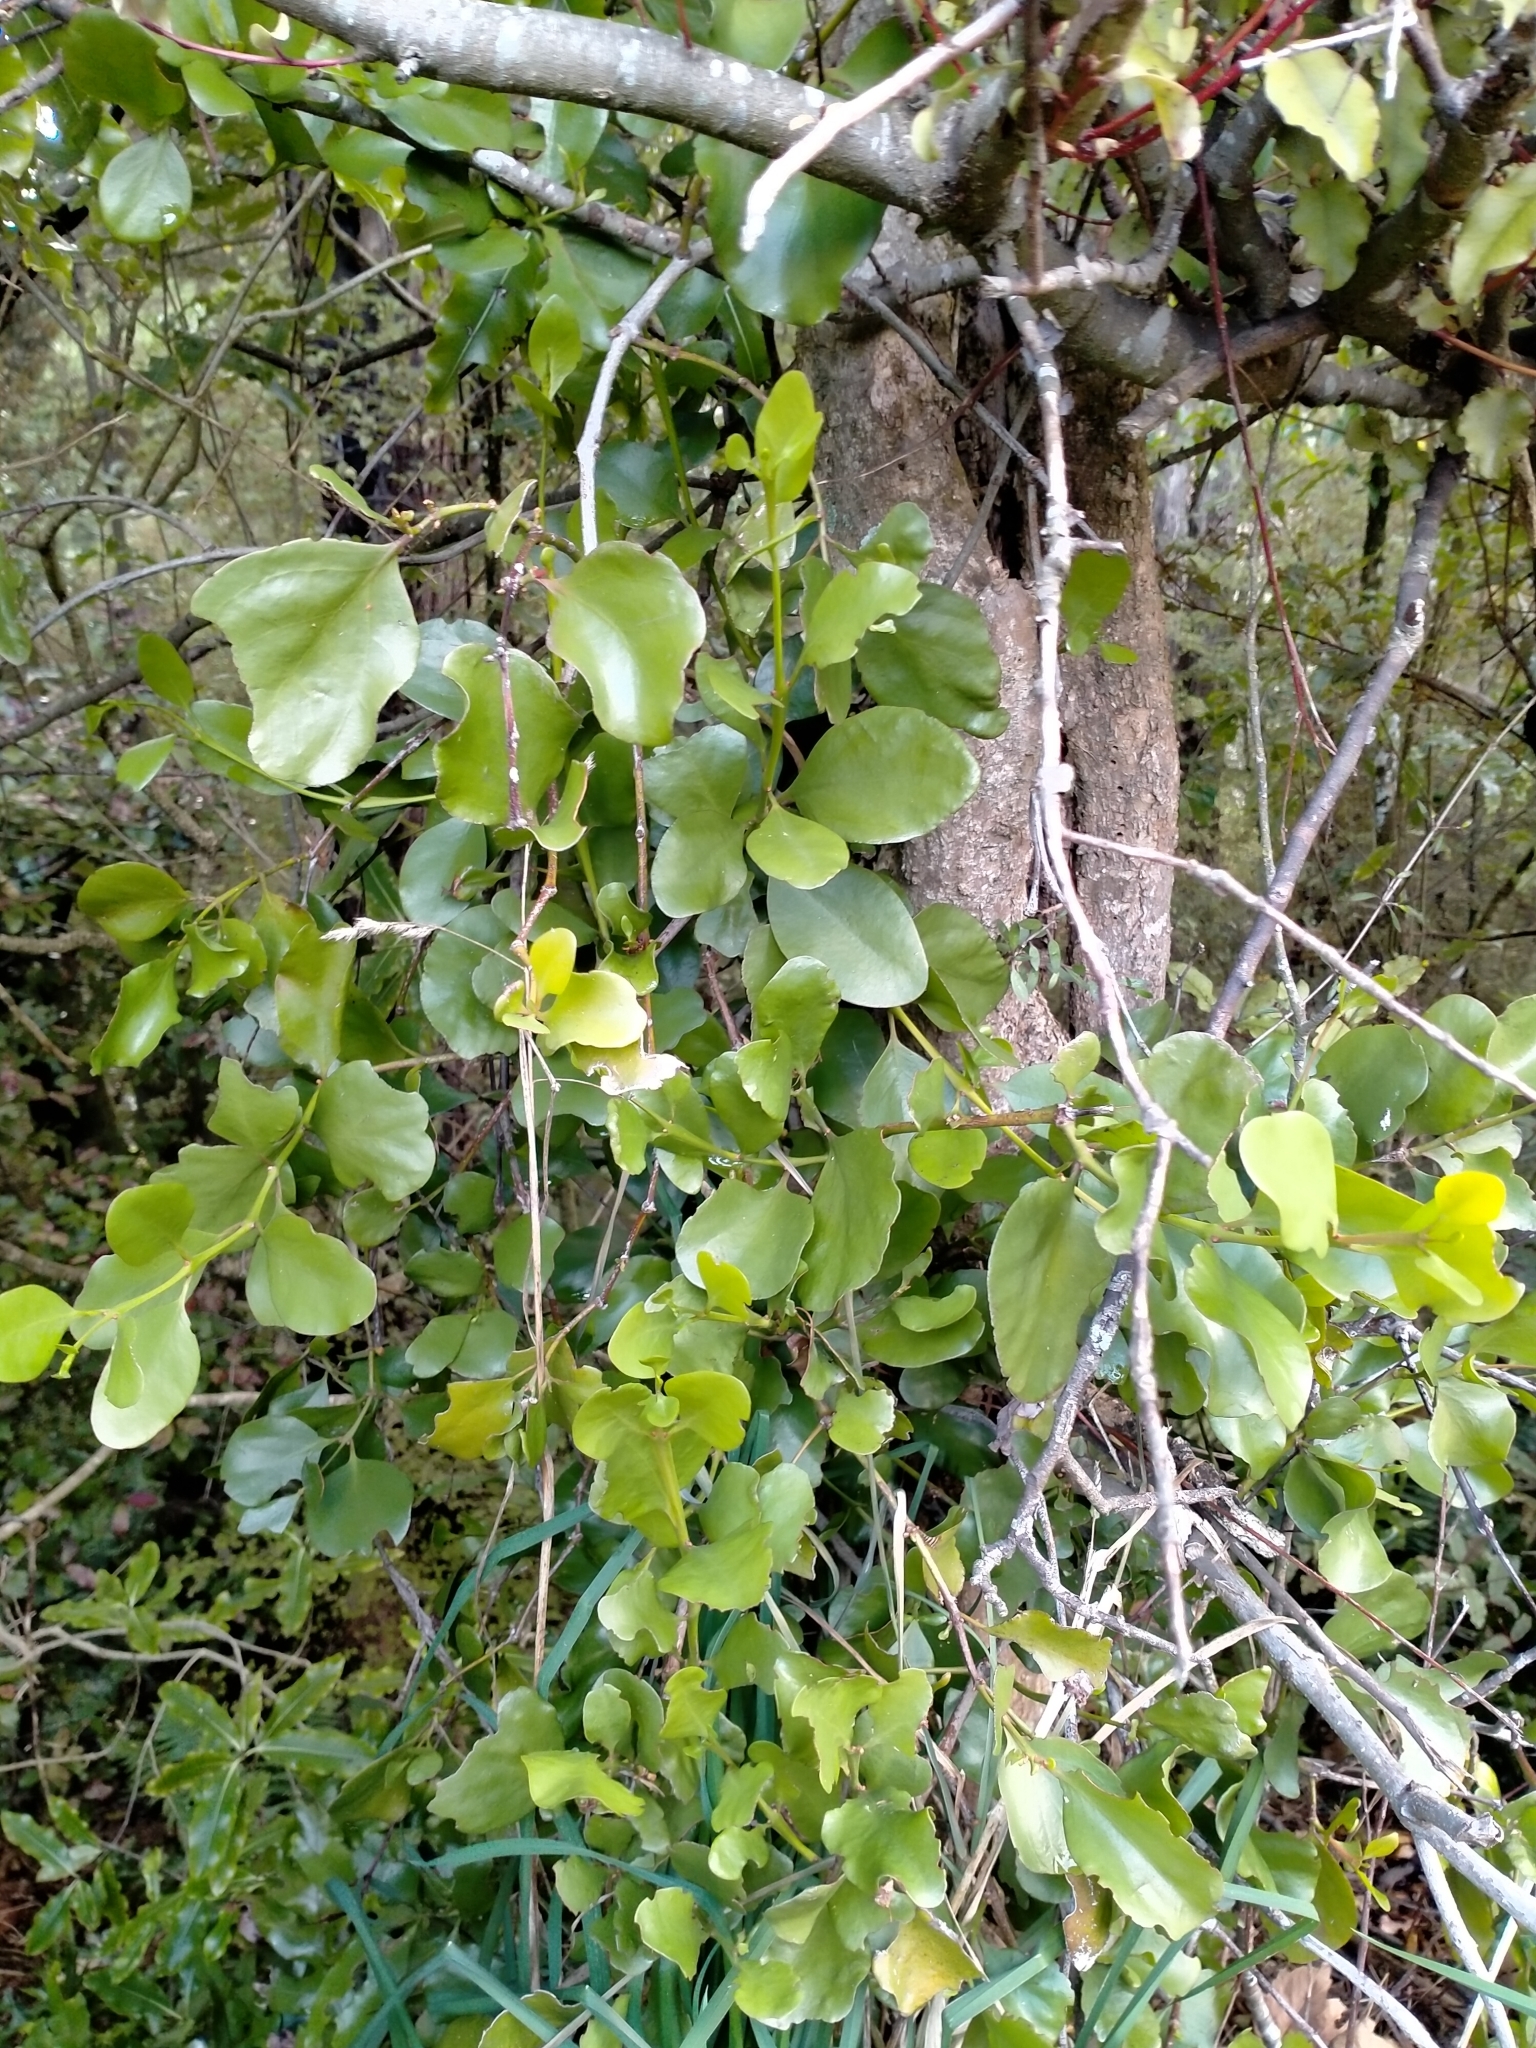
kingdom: Plantae
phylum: Tracheophyta
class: Magnoliopsida
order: Santalales
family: Loranthaceae
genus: Ileostylus
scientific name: Ileostylus micranthus
